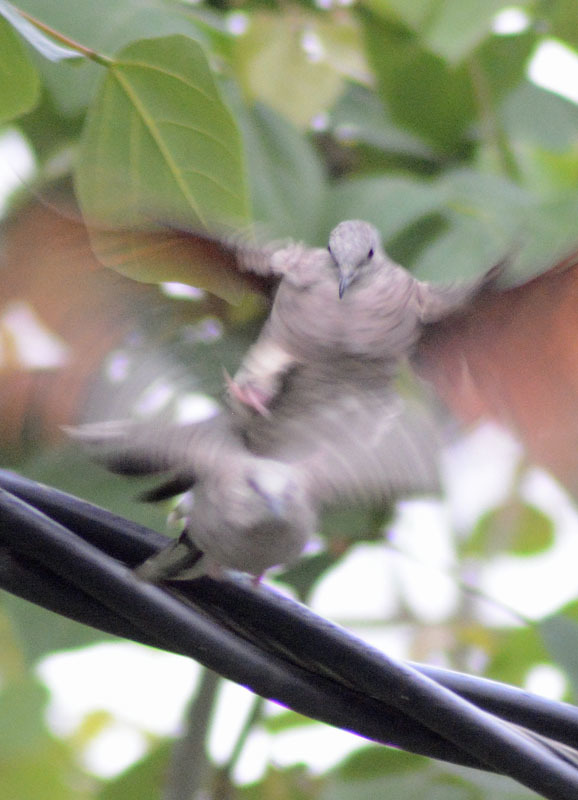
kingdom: Animalia
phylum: Chordata
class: Aves
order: Columbiformes
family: Columbidae
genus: Columbina
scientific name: Columbina inca
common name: Inca dove
